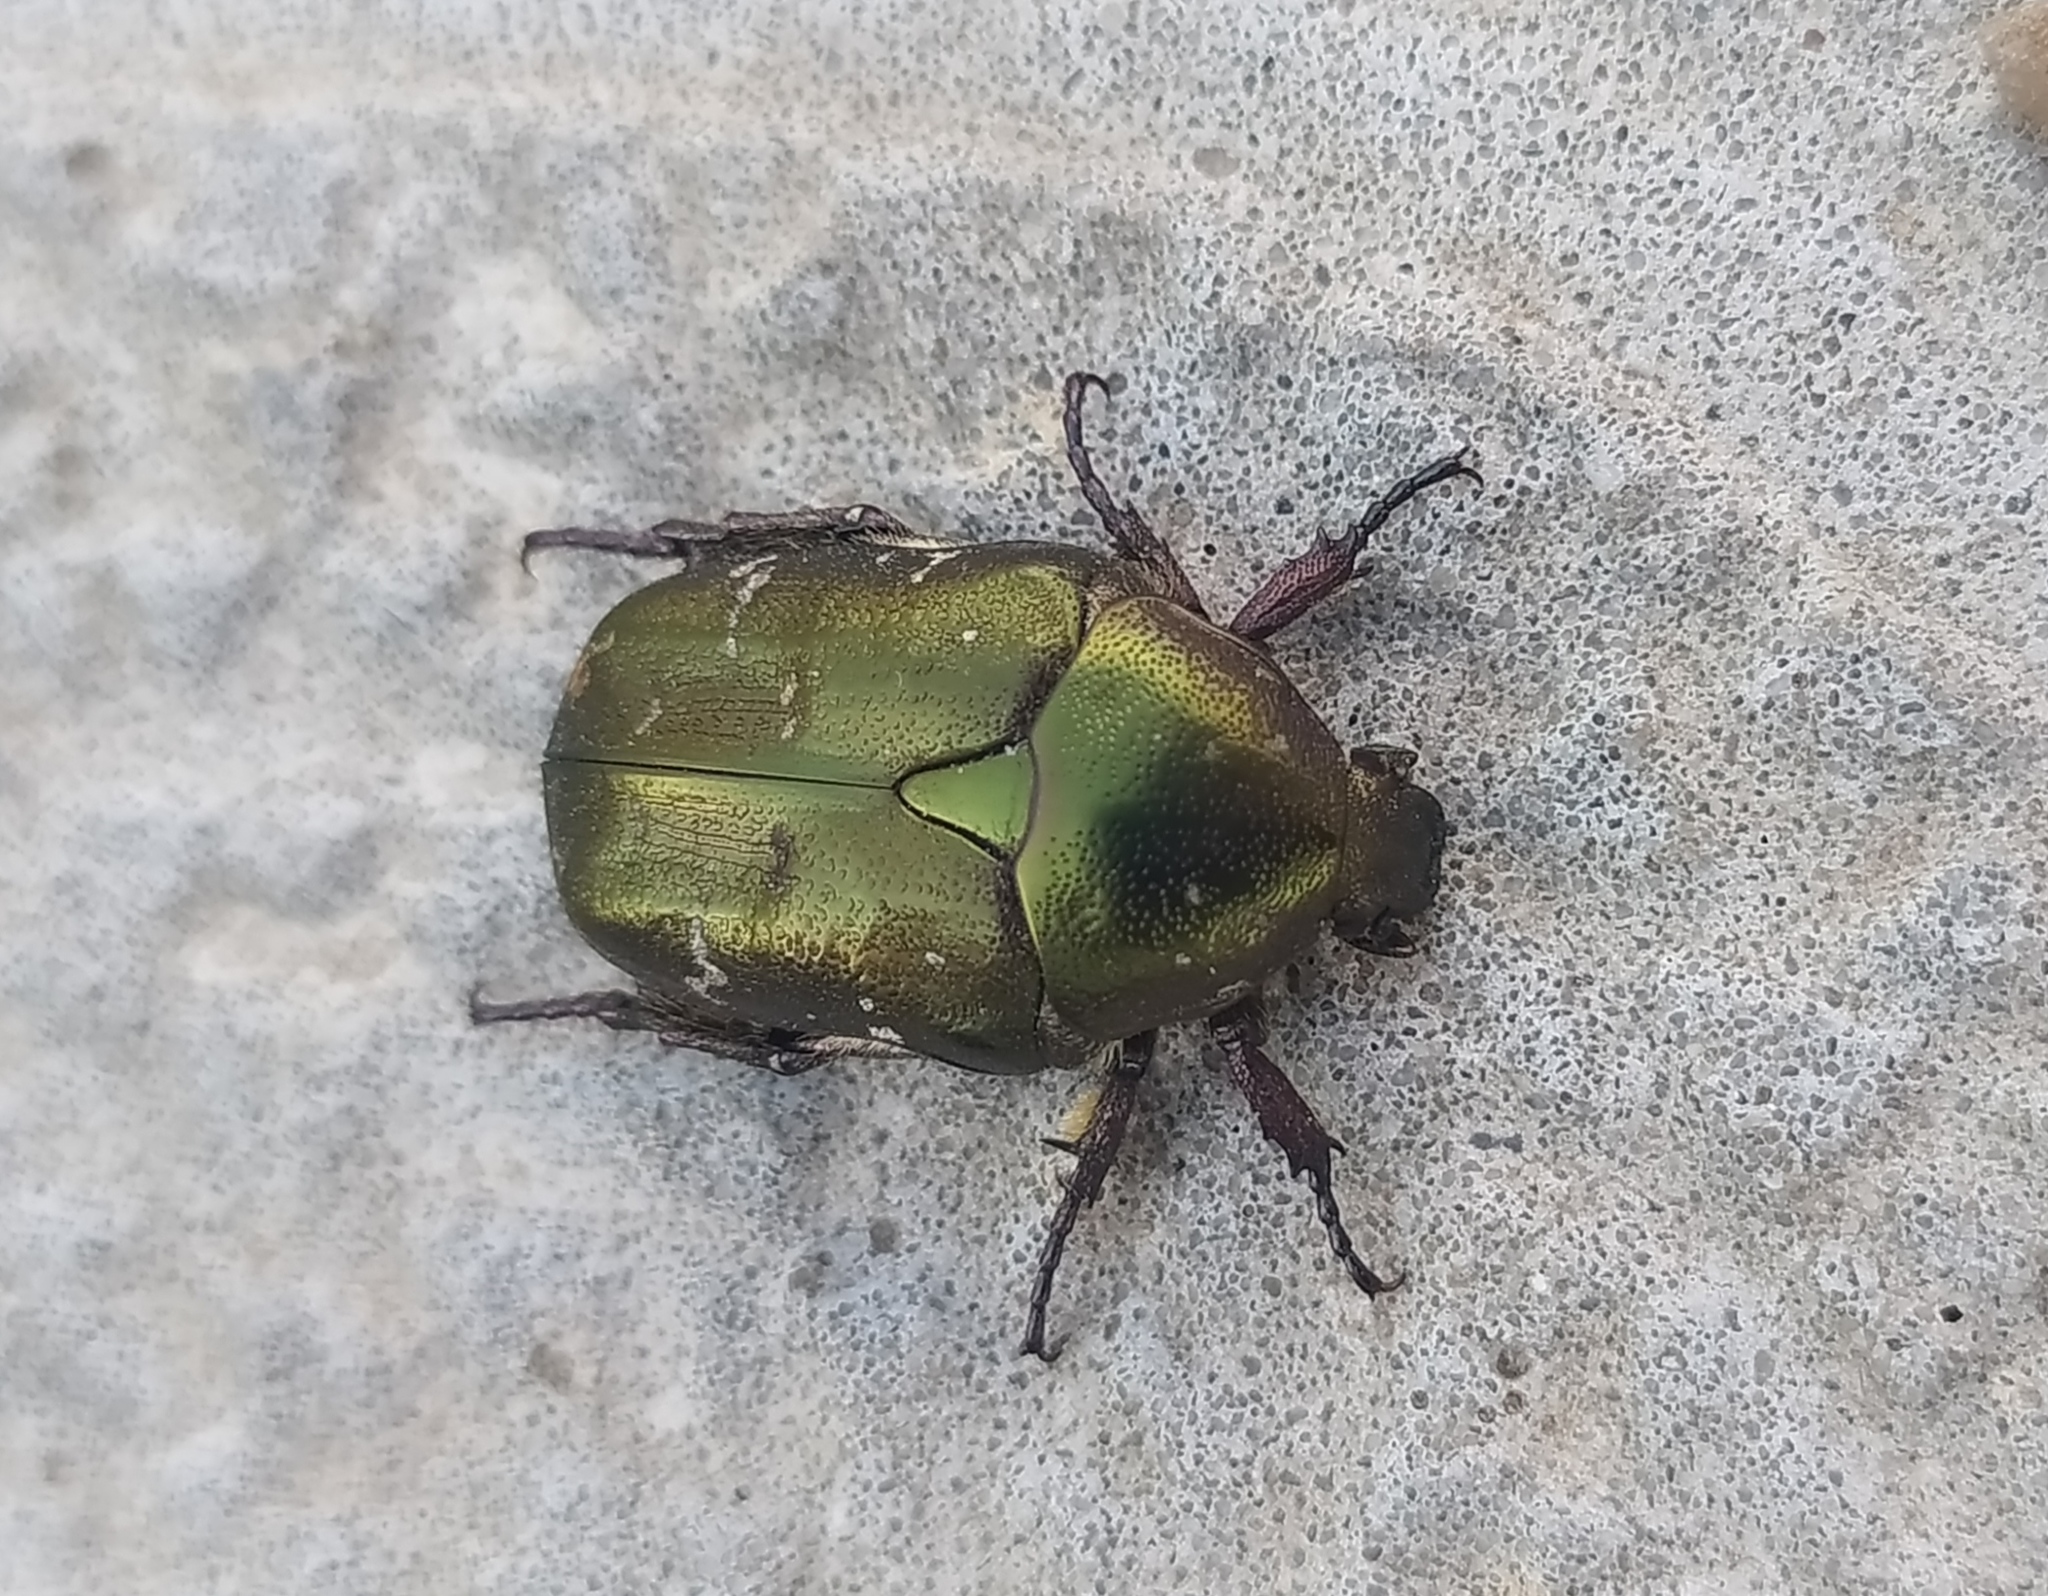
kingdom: Animalia
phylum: Arthropoda
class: Insecta
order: Coleoptera
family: Scarabaeidae
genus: Protaetia
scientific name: Protaetia cuprea
